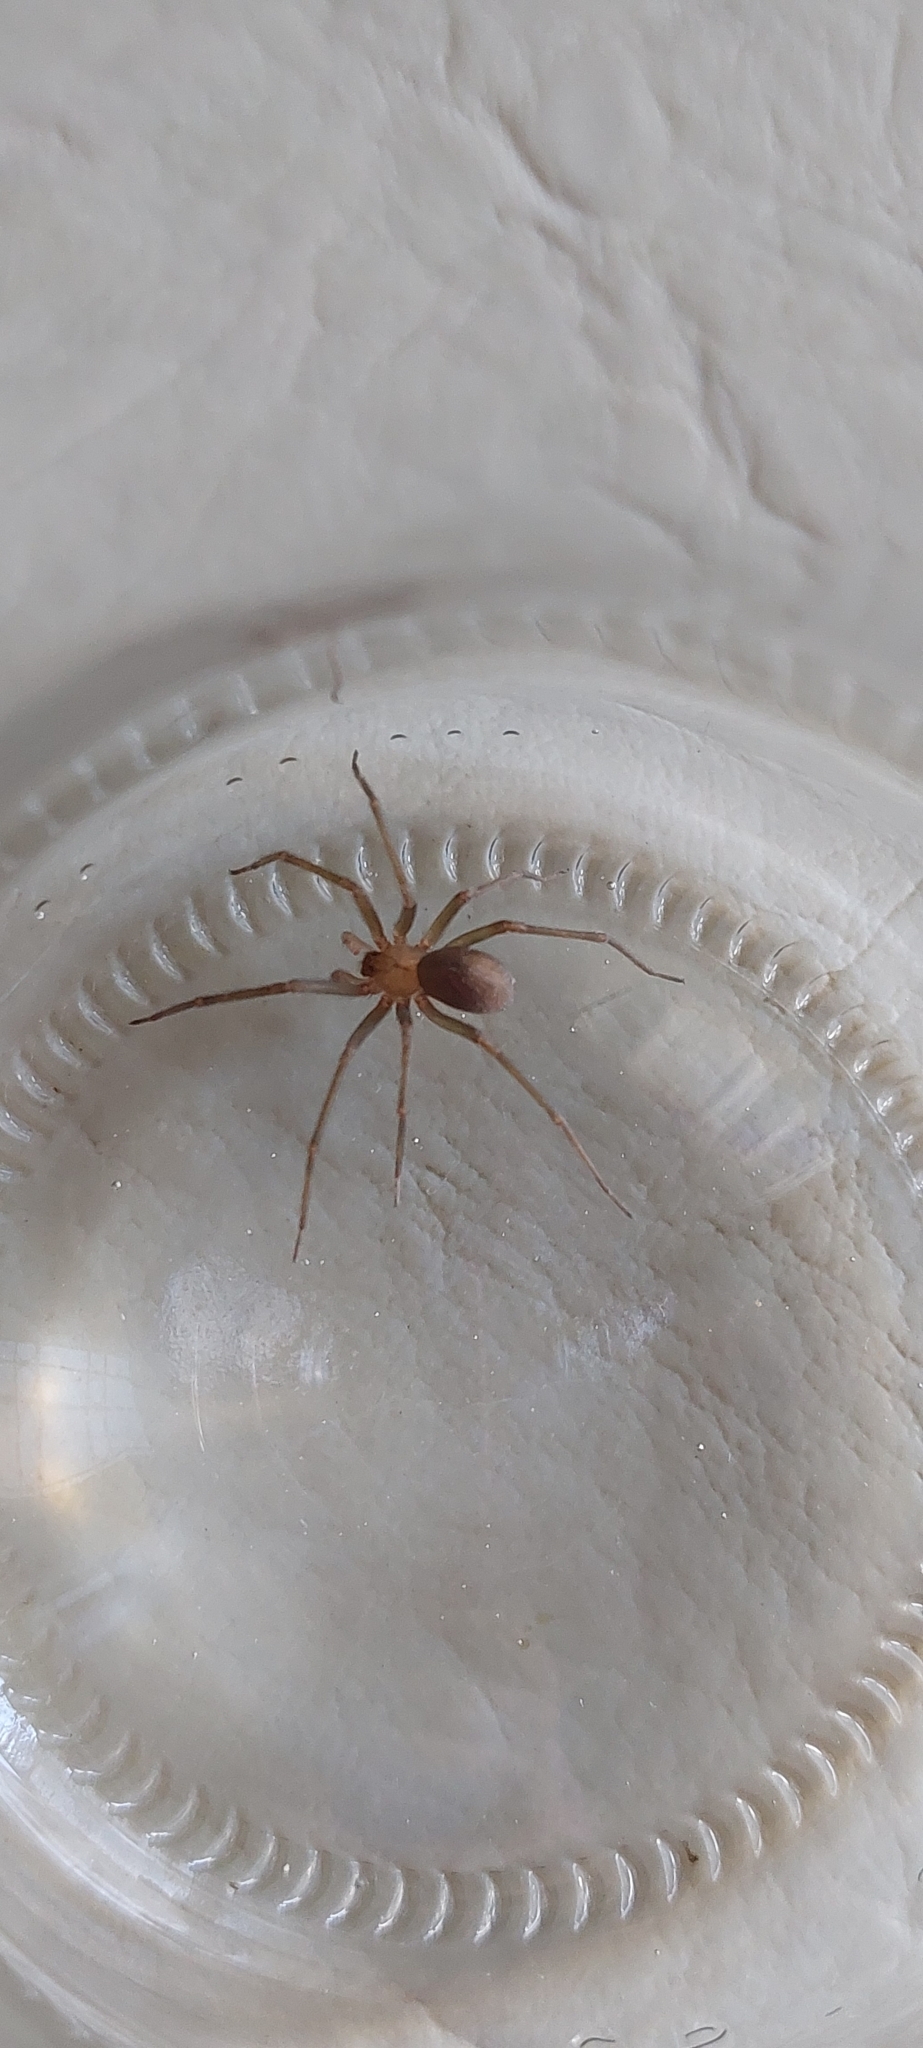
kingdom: Animalia
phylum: Arthropoda
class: Arachnida
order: Araneae
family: Sicariidae
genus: Loxosceles
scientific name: Loxosceles laeta
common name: Chilean recluse spider
